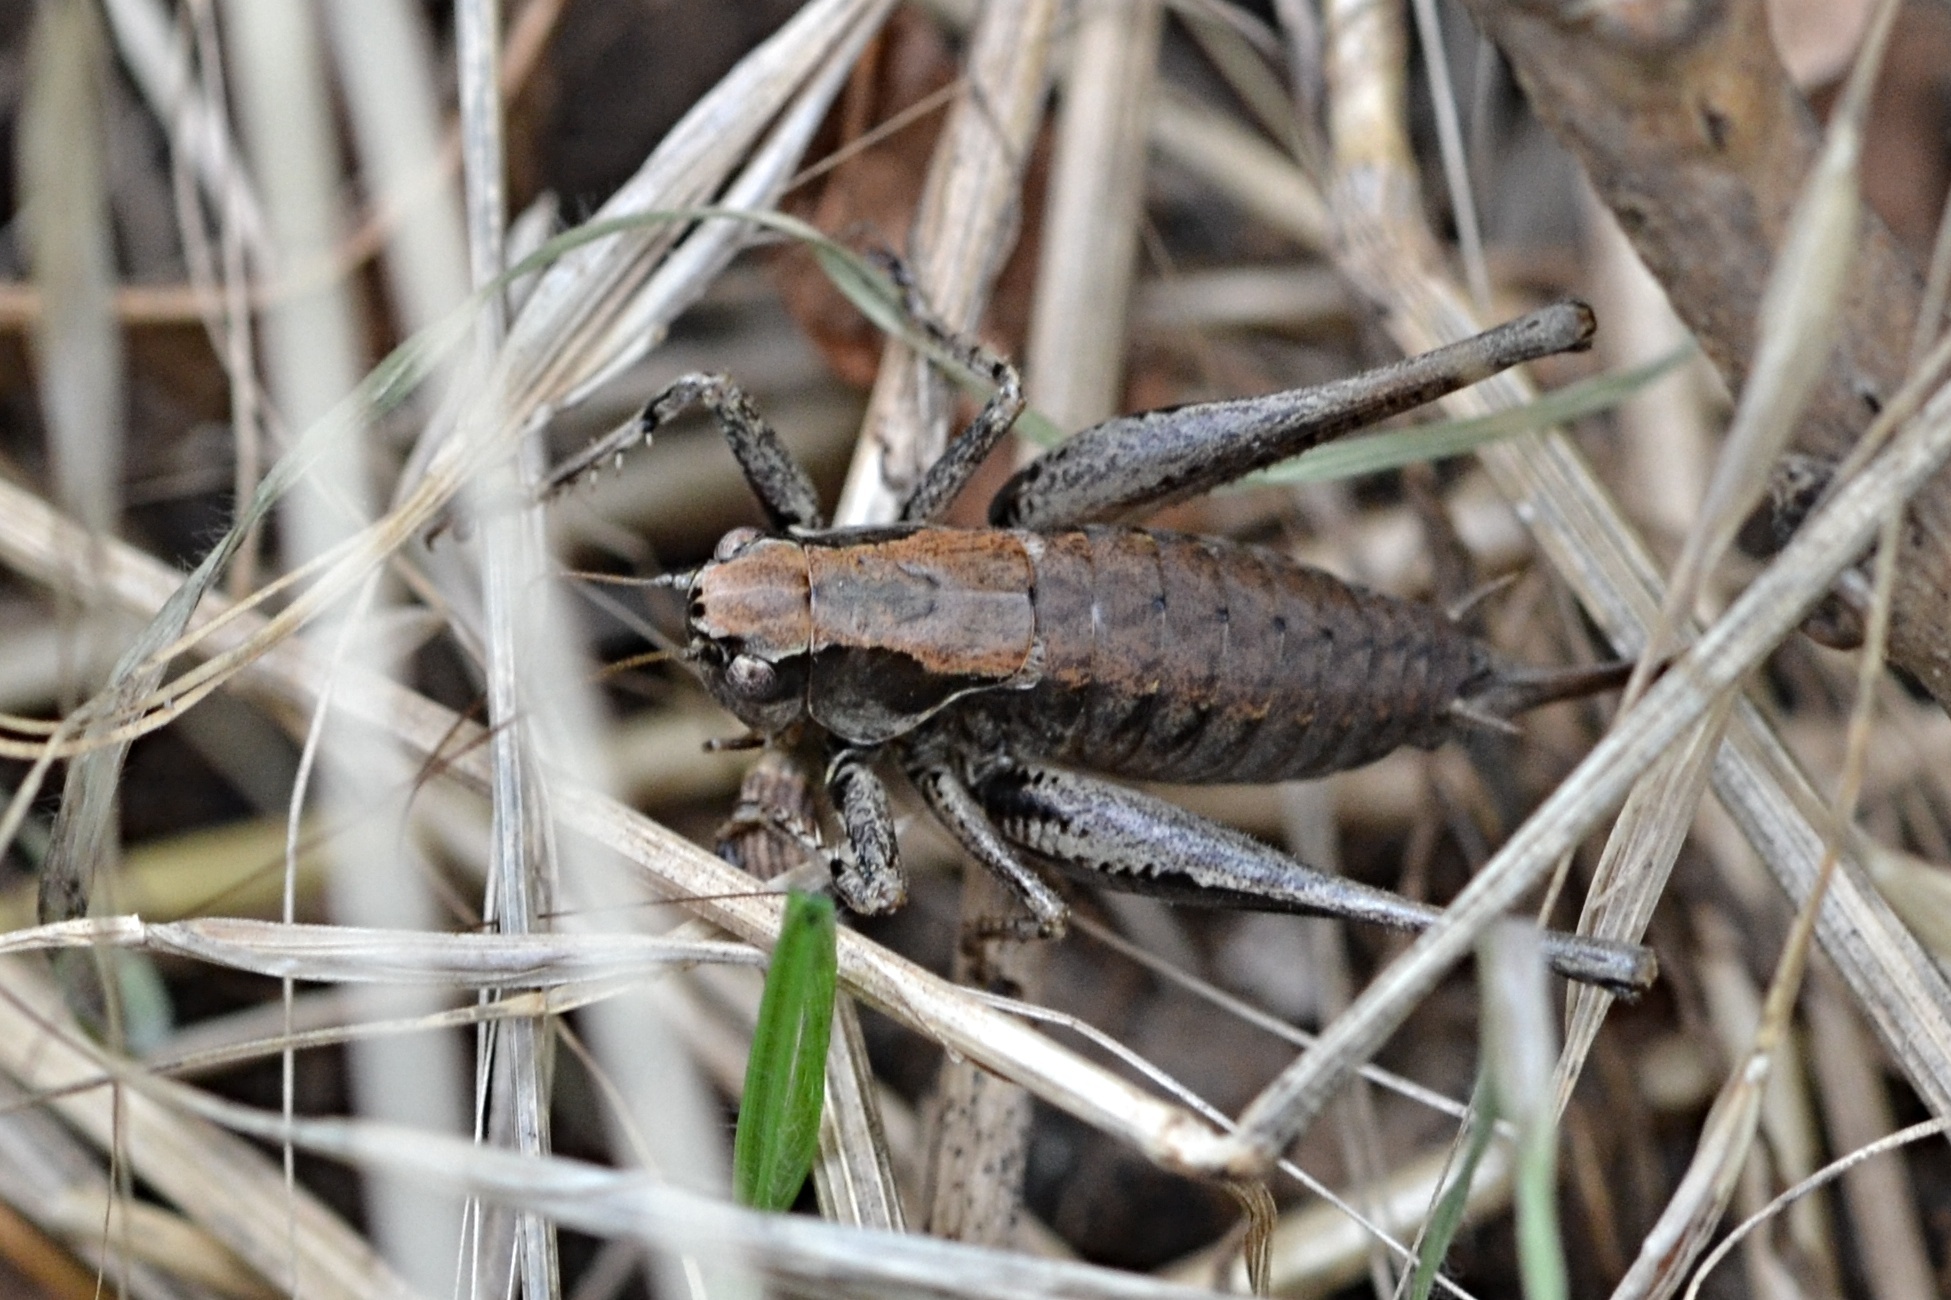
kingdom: Animalia
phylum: Arthropoda
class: Insecta
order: Orthoptera
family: Tettigoniidae
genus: Pholidoptera
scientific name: Pholidoptera griseoaptera
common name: Dark bush-cricket
